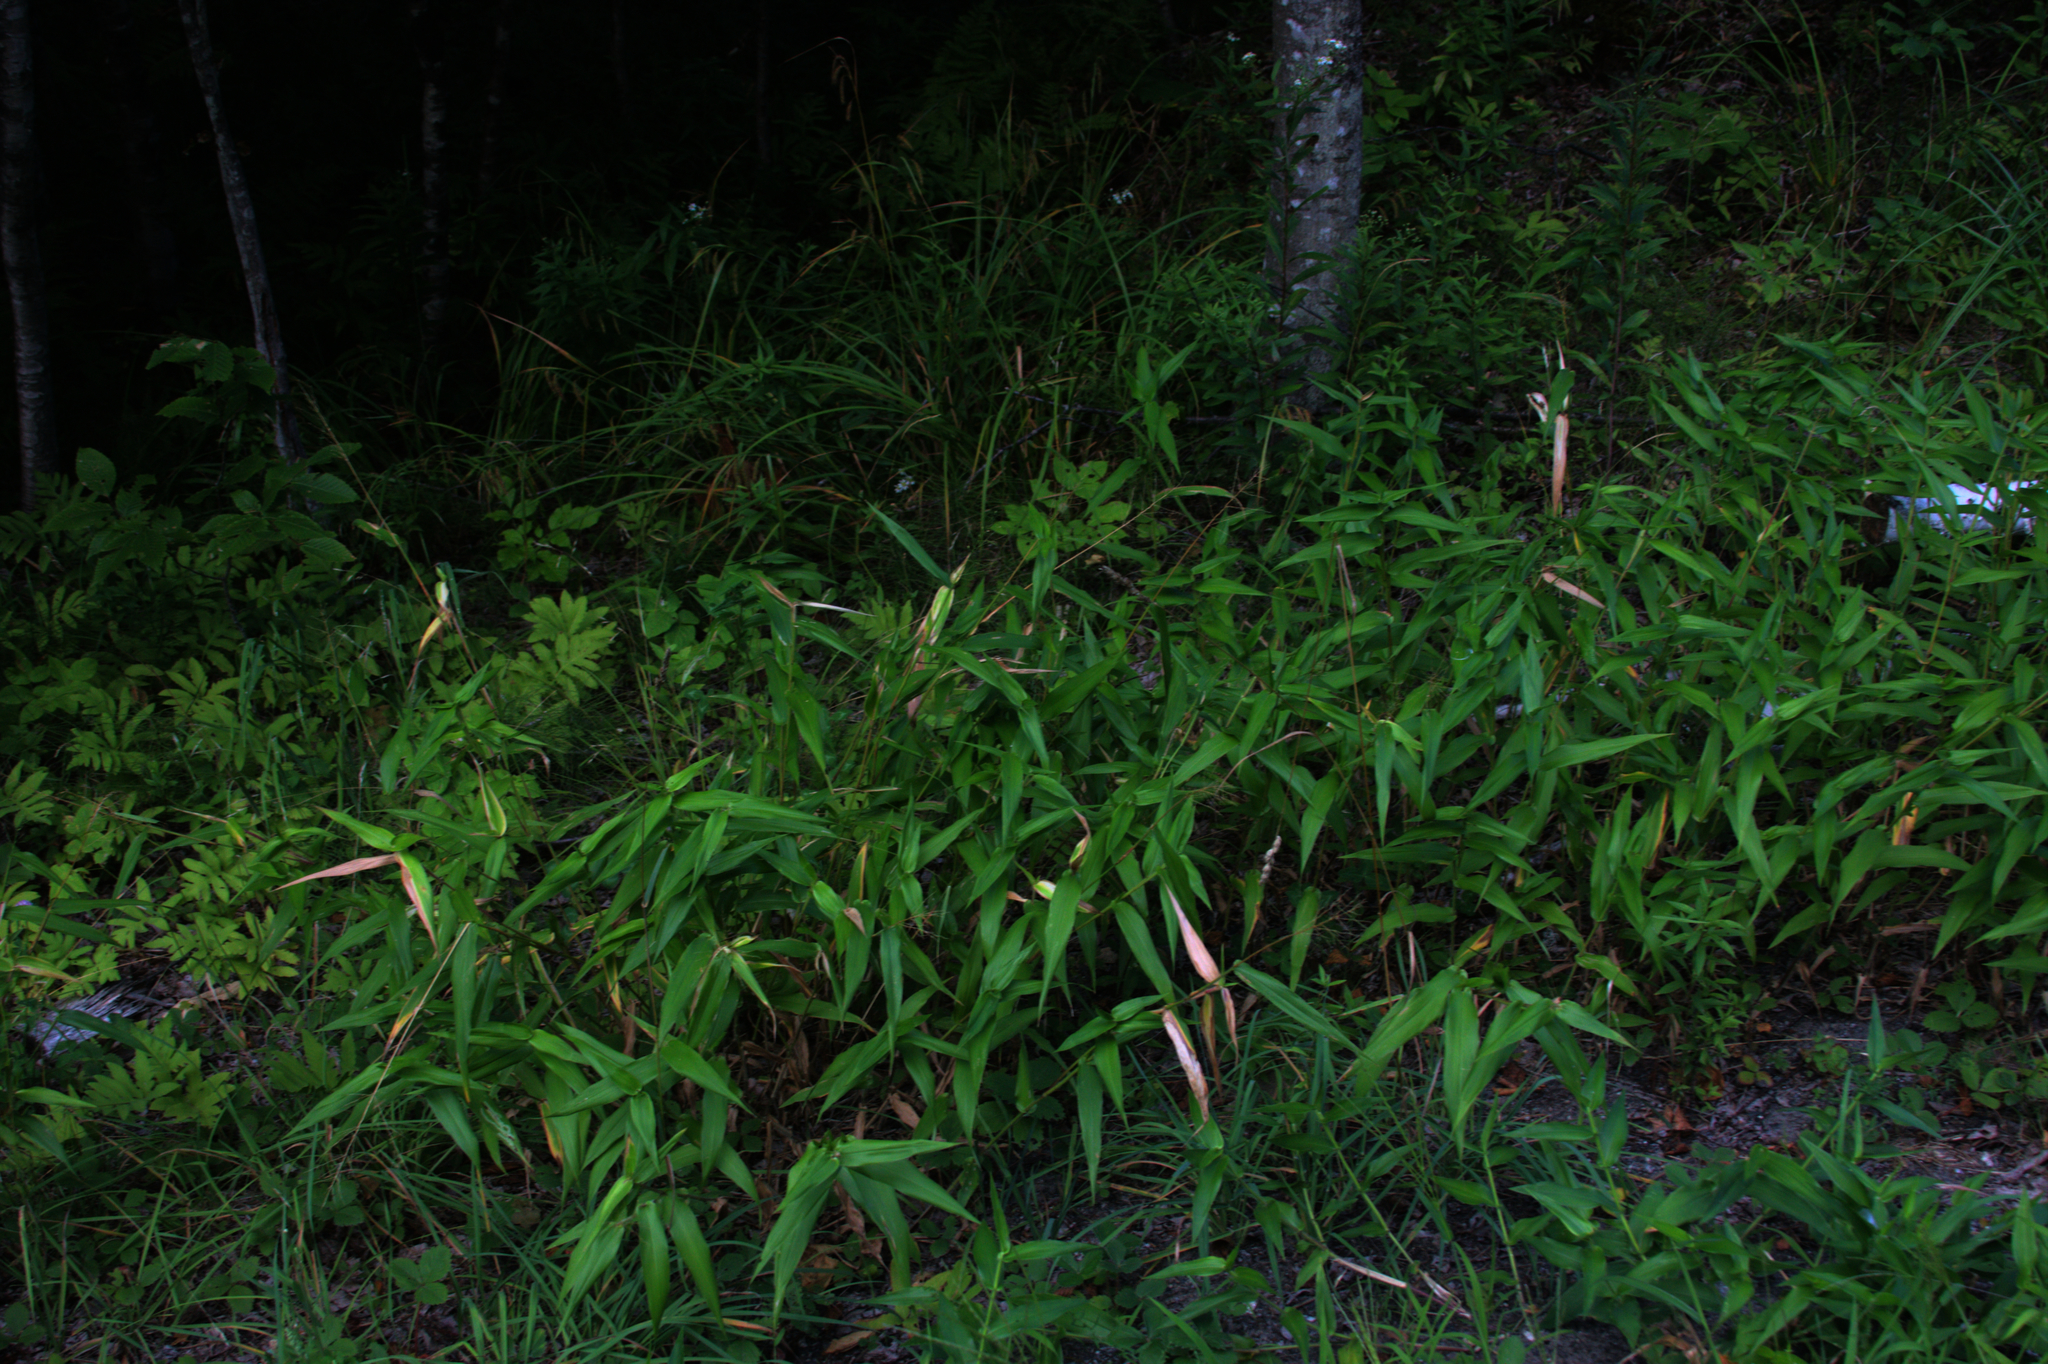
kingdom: Plantae
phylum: Tracheophyta
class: Liliopsida
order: Poales
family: Poaceae
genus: Dichanthelium
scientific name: Dichanthelium clandestinum
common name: Deer-tongue grass
